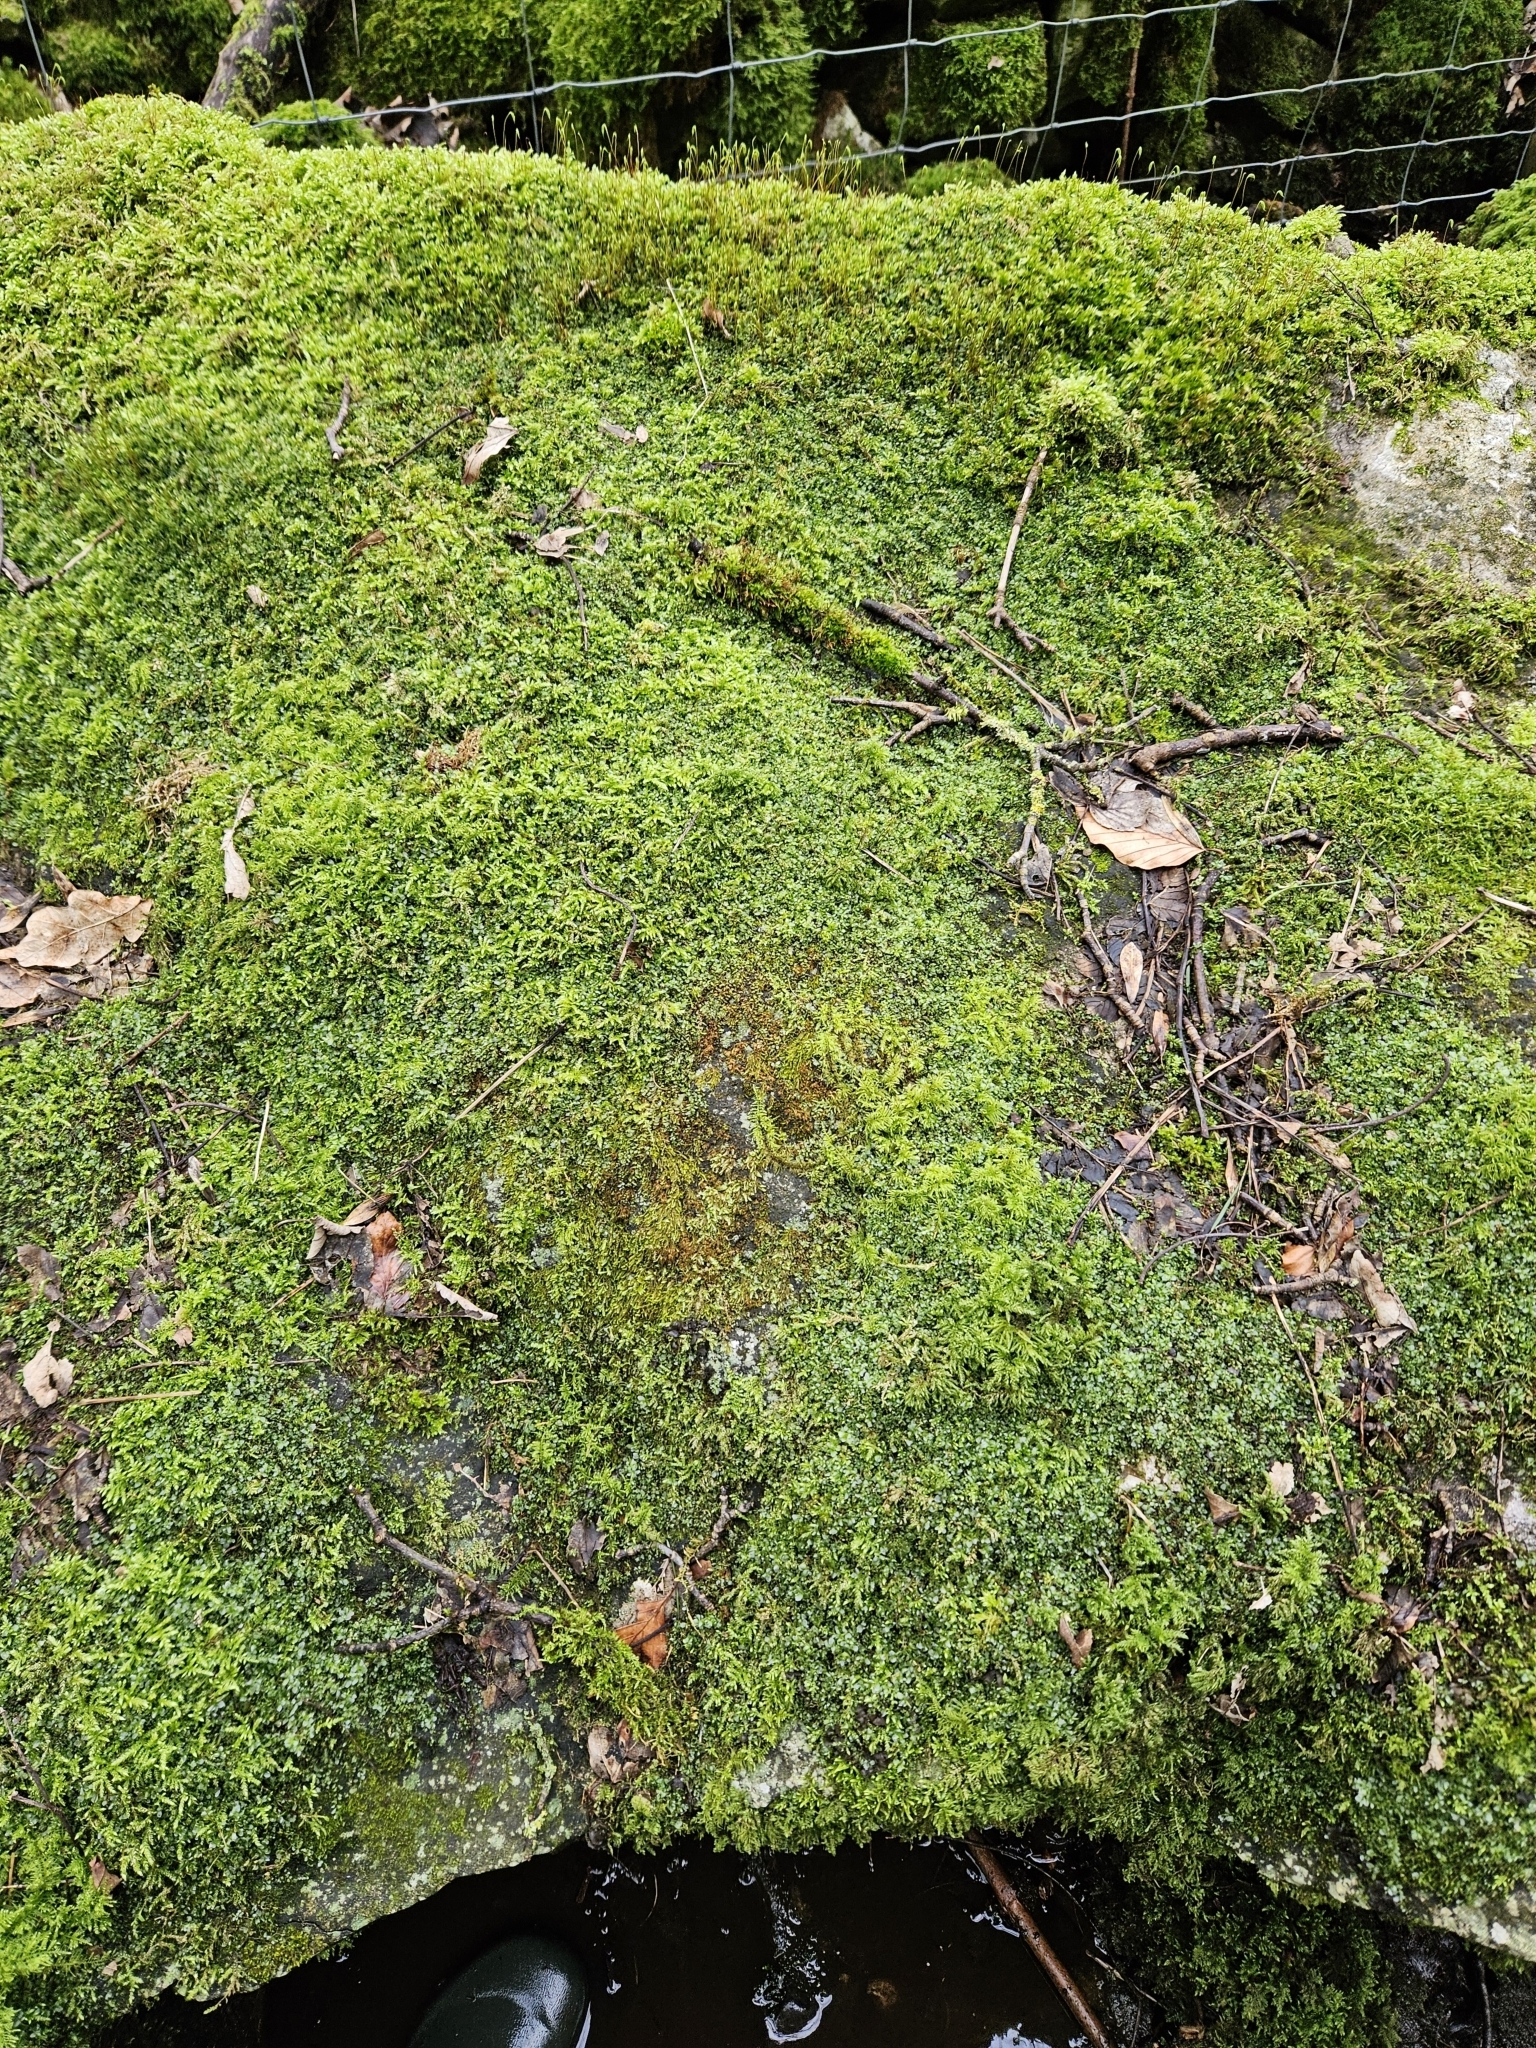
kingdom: Plantae
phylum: Bryophyta
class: Bryopsida
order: Bryales
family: Mniaceae
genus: Plagiomnium
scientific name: Plagiomnium rostratum
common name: Long-beaked leafy moss
